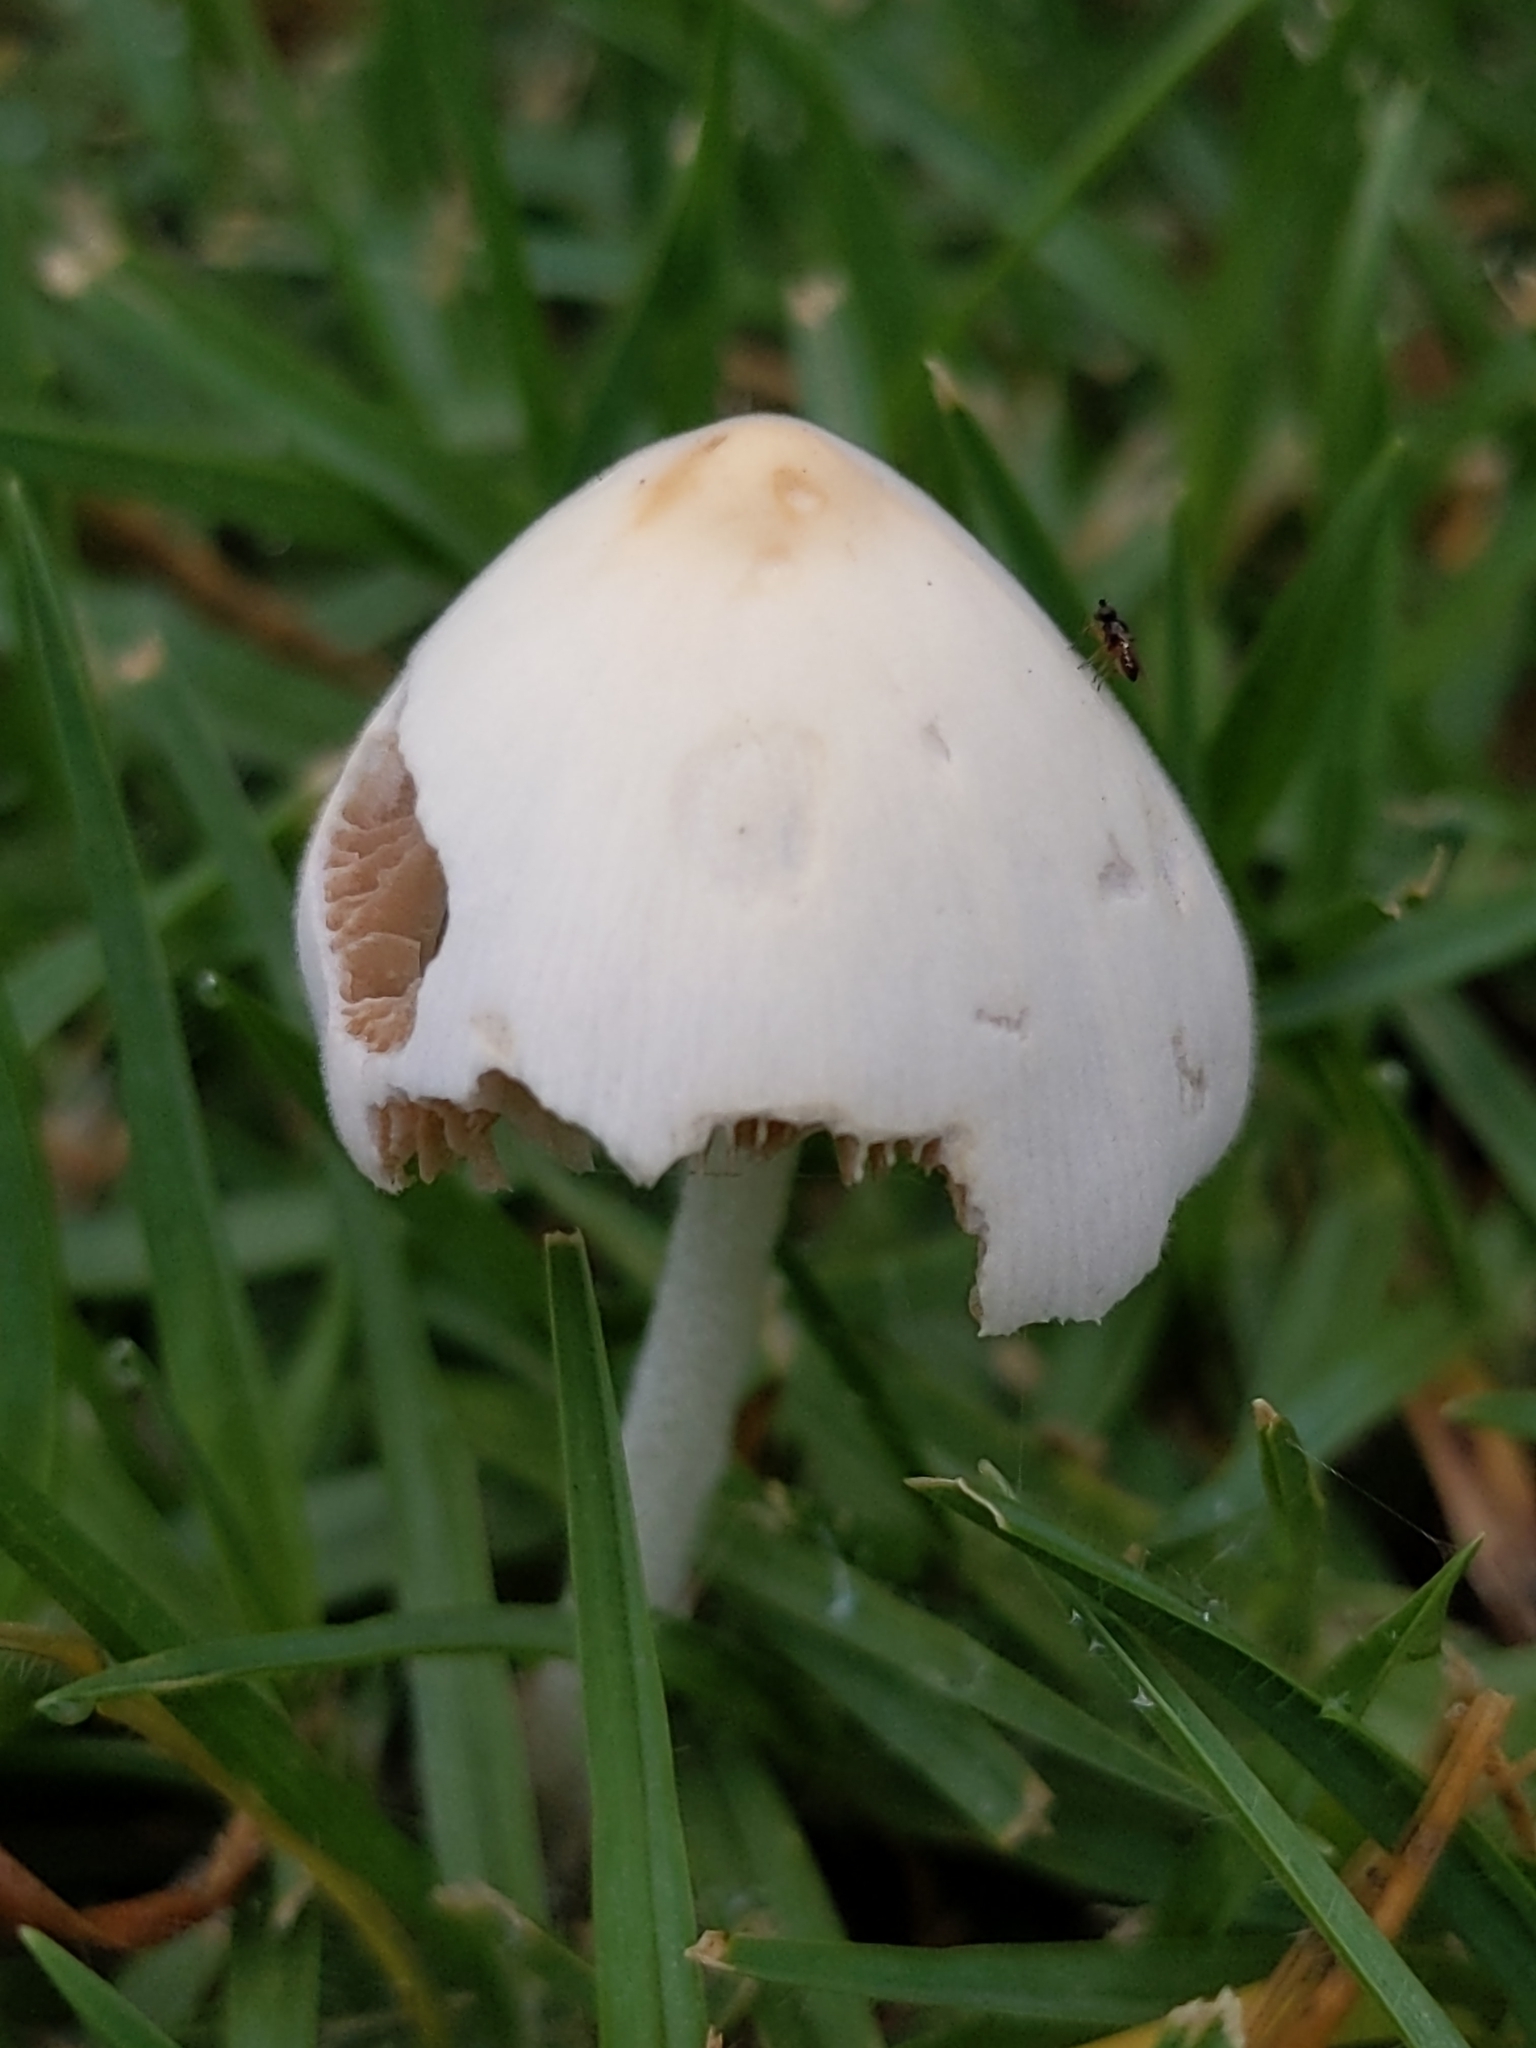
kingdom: Fungi
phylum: Basidiomycota
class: Agaricomycetes
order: Agaricales
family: Bolbitiaceae
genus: Conocybe
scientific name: Conocybe apala
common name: Milky conecap
